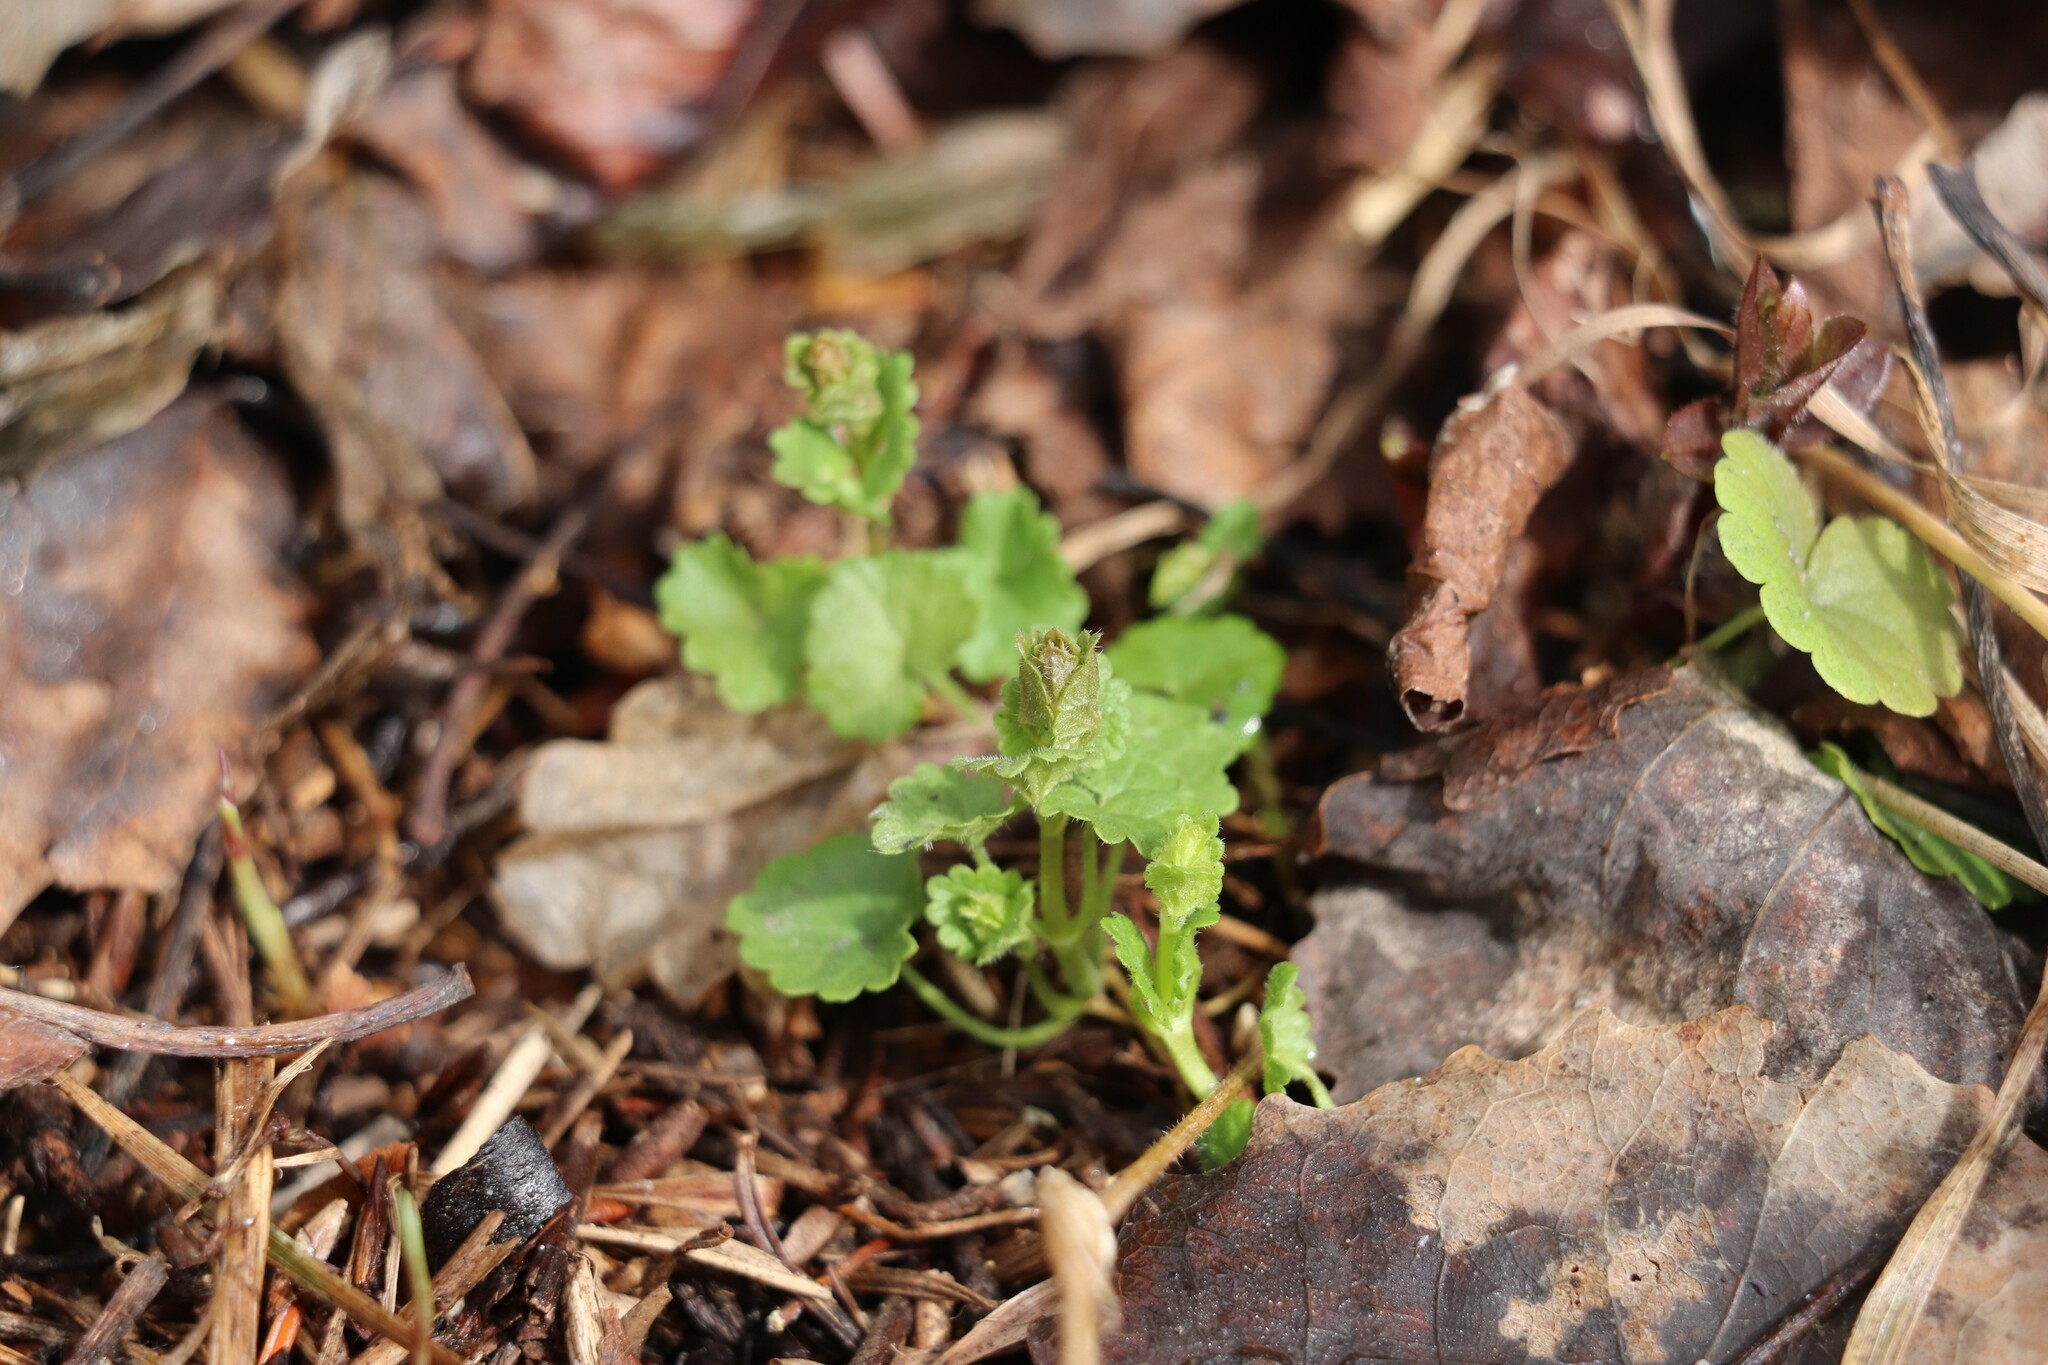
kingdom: Plantae
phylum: Tracheophyta
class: Magnoliopsida
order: Lamiales
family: Lamiaceae
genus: Glechoma
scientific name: Glechoma hederacea
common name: Ground ivy
